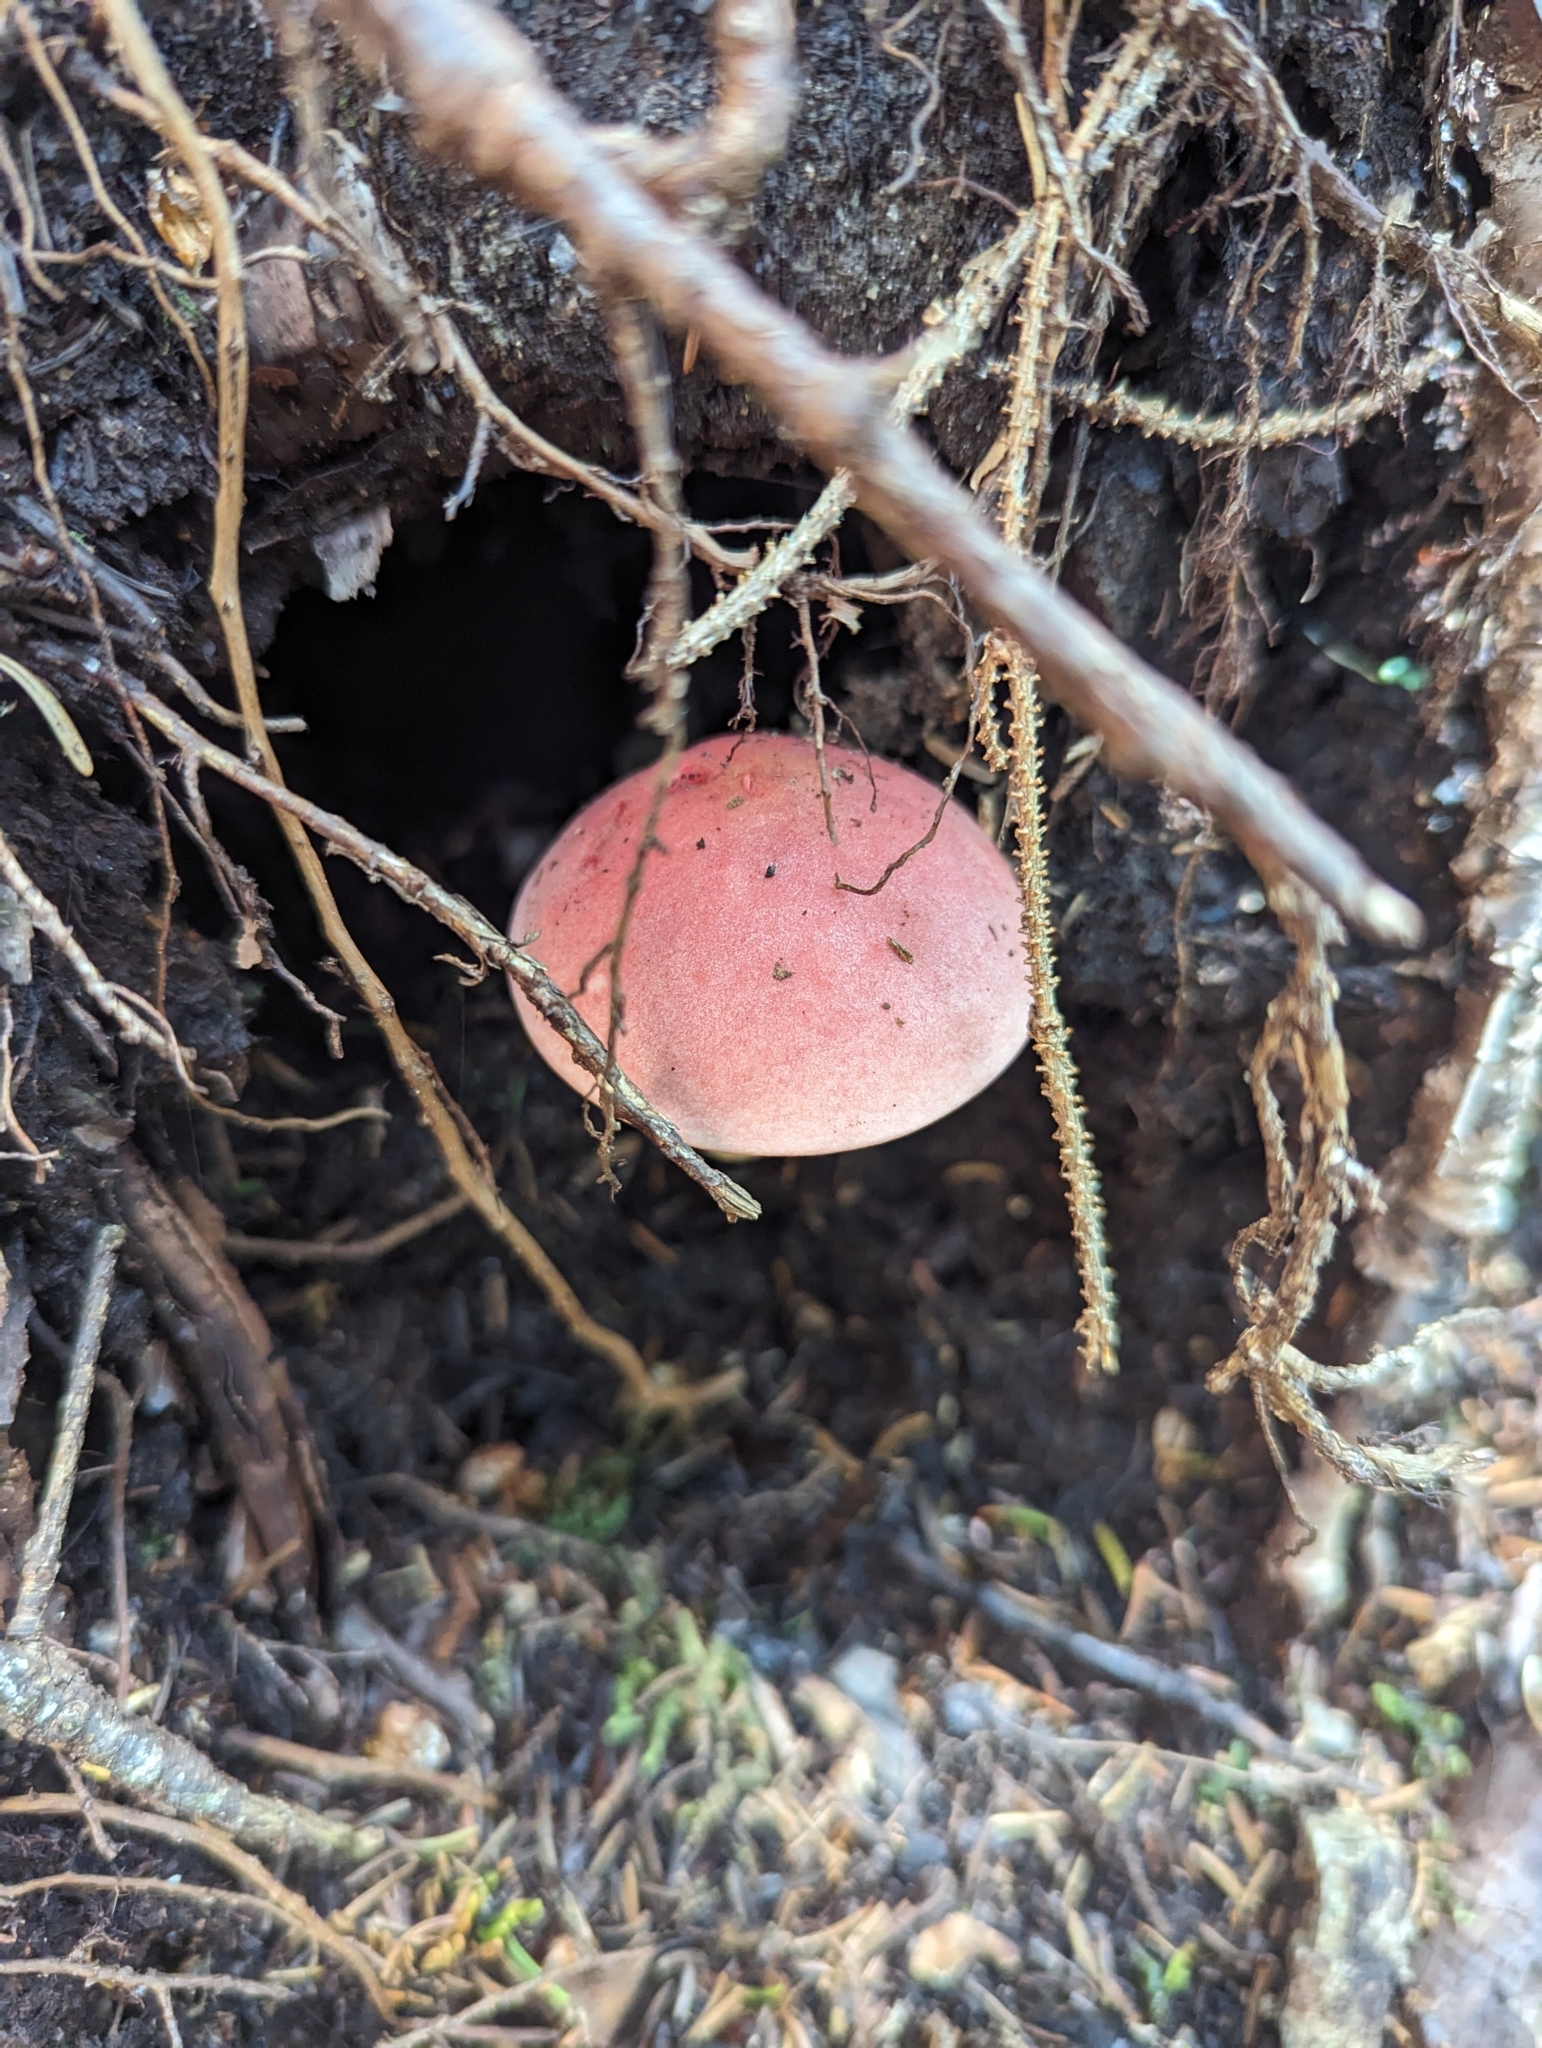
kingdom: Fungi
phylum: Basidiomycota
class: Agaricomycetes
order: Boletales
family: Boletaceae
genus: Harrya
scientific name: Harrya chromipes
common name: Chrome-footed bolete
